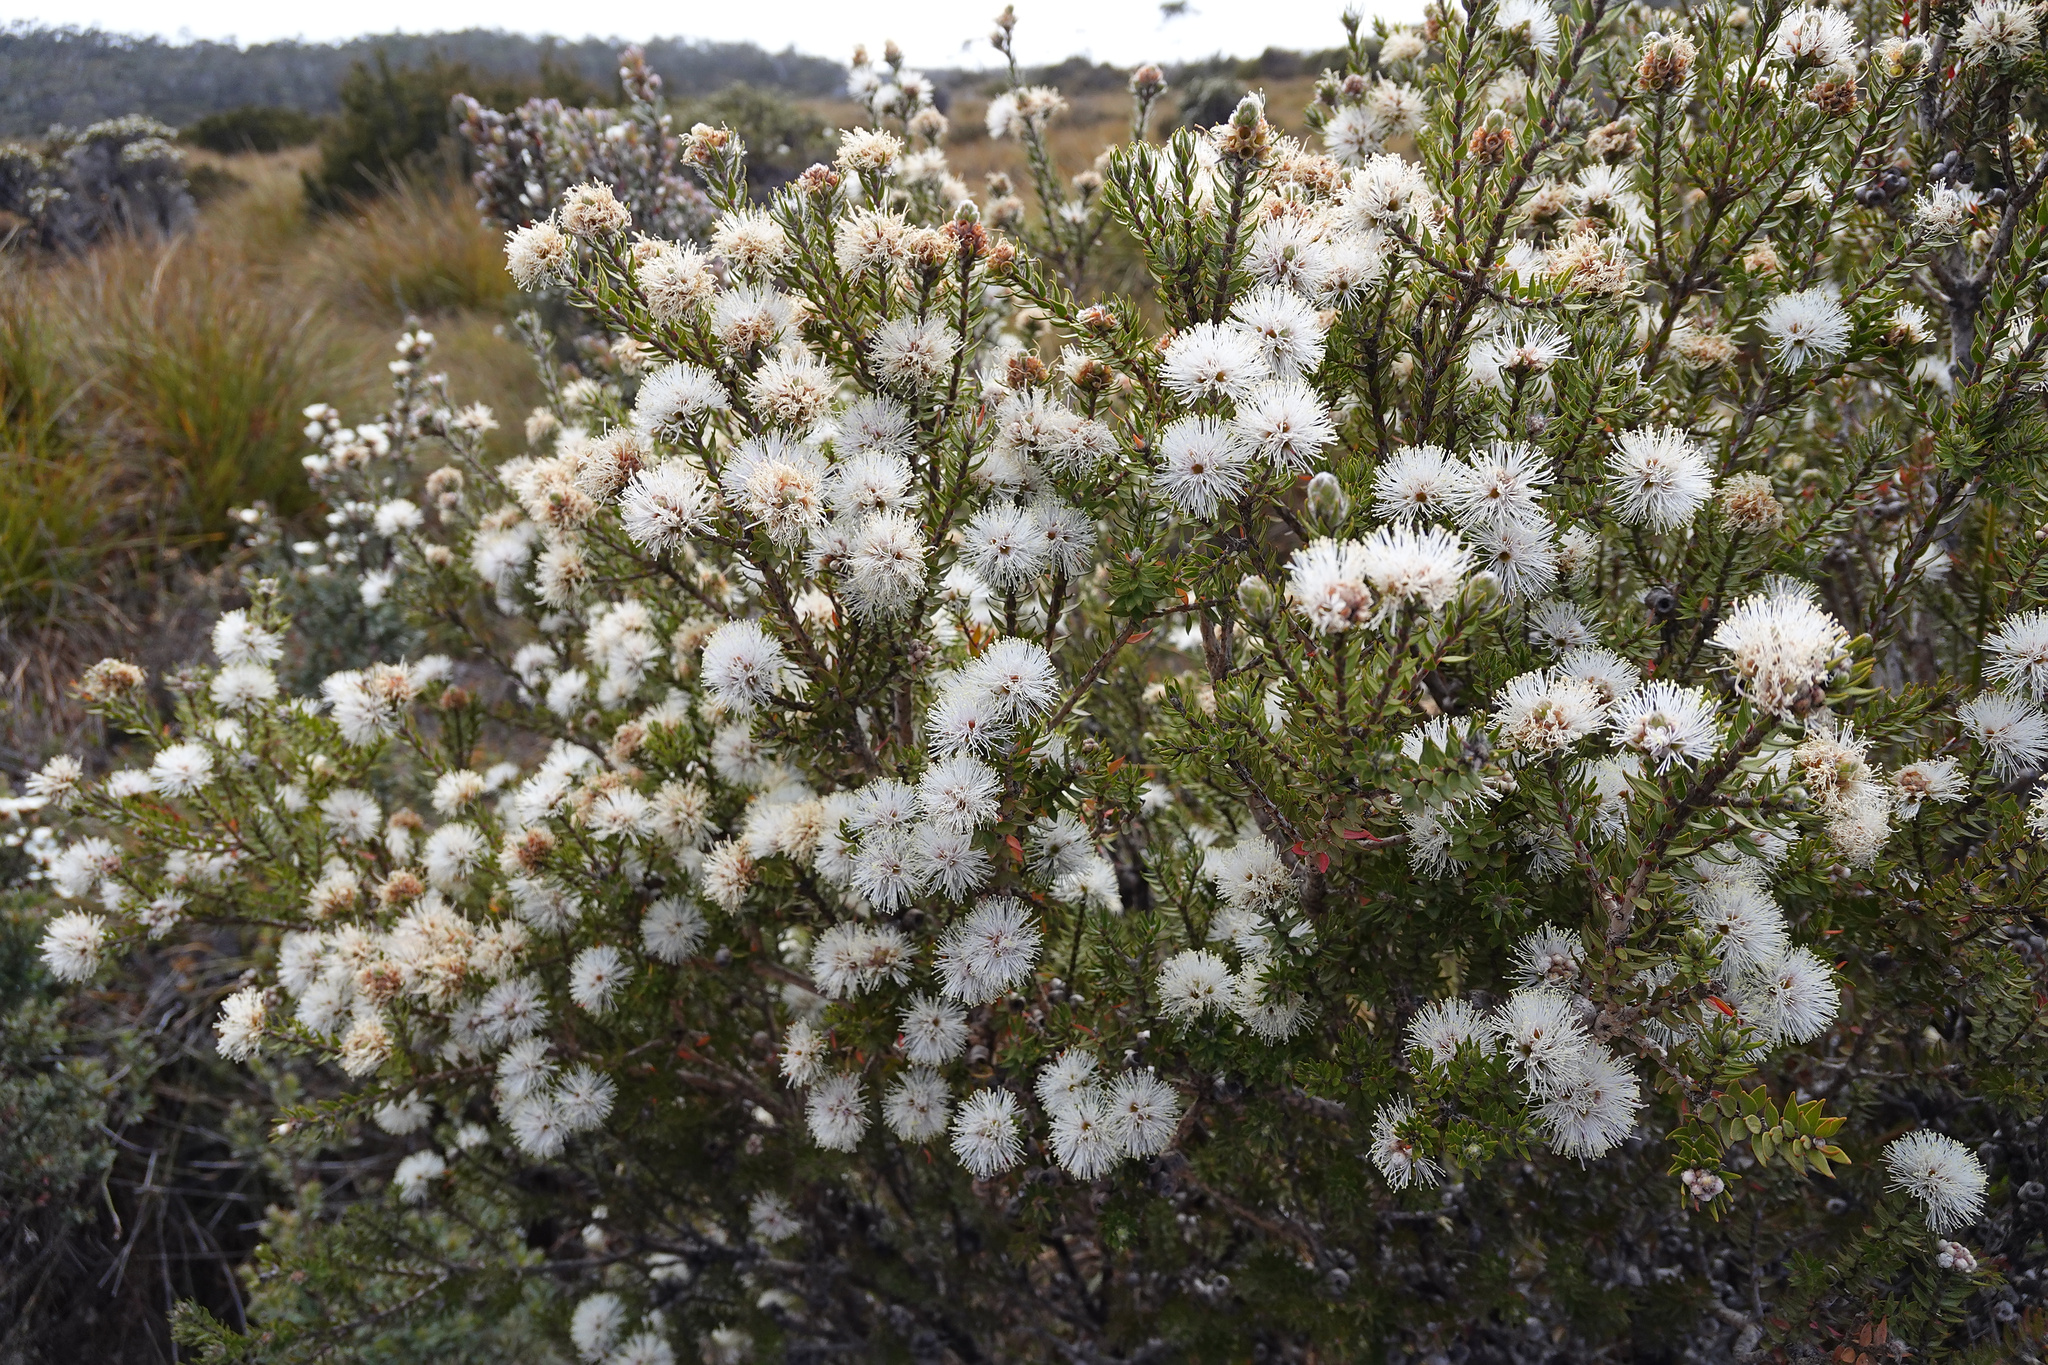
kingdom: Plantae
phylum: Tracheophyta
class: Magnoliopsida
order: Myrtales
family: Myrtaceae
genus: Melaleuca
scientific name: Melaleuca squamea
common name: Swamp melaleuca
